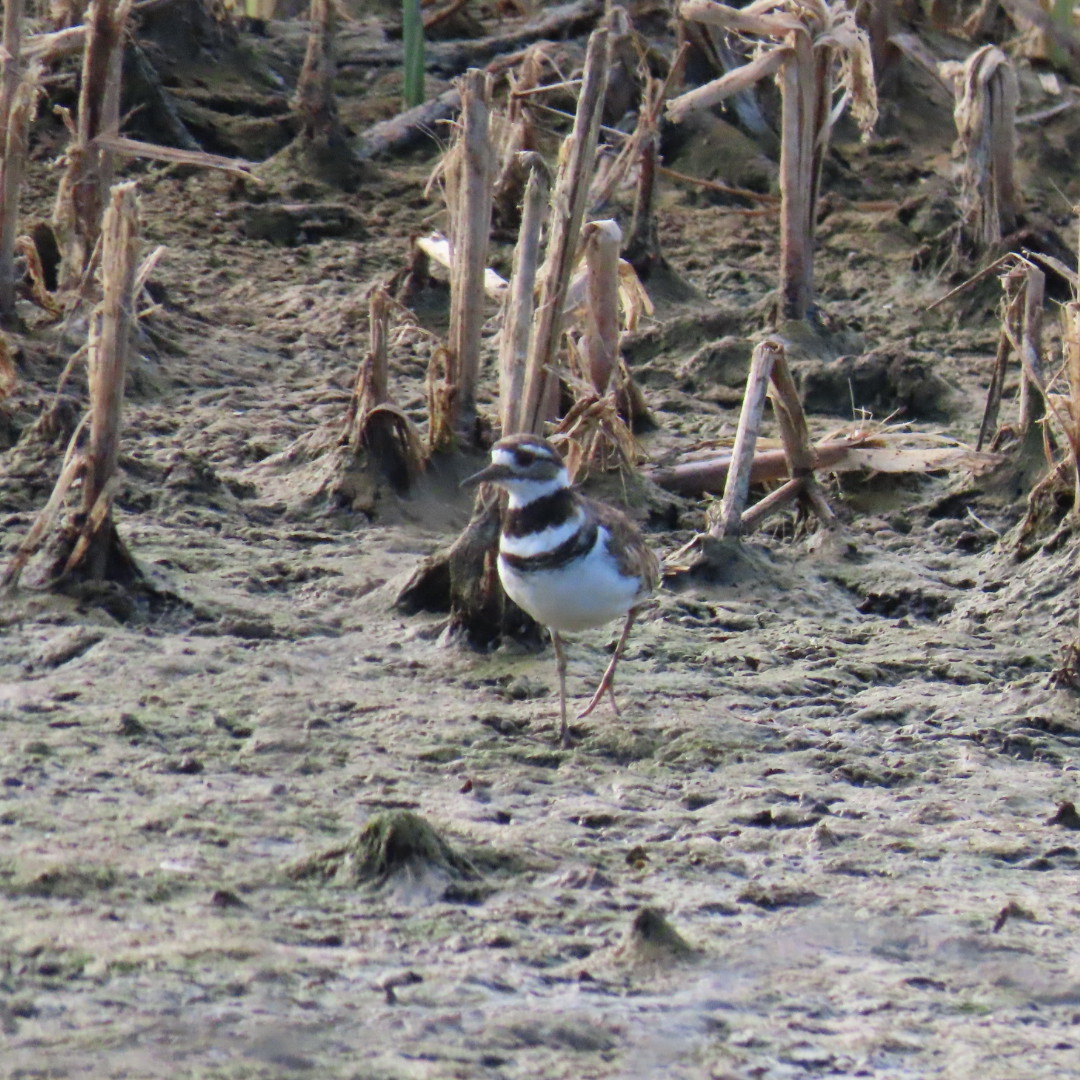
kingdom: Animalia
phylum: Chordata
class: Aves
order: Charadriiformes
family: Charadriidae
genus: Charadrius
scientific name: Charadrius vociferus
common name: Killdeer
